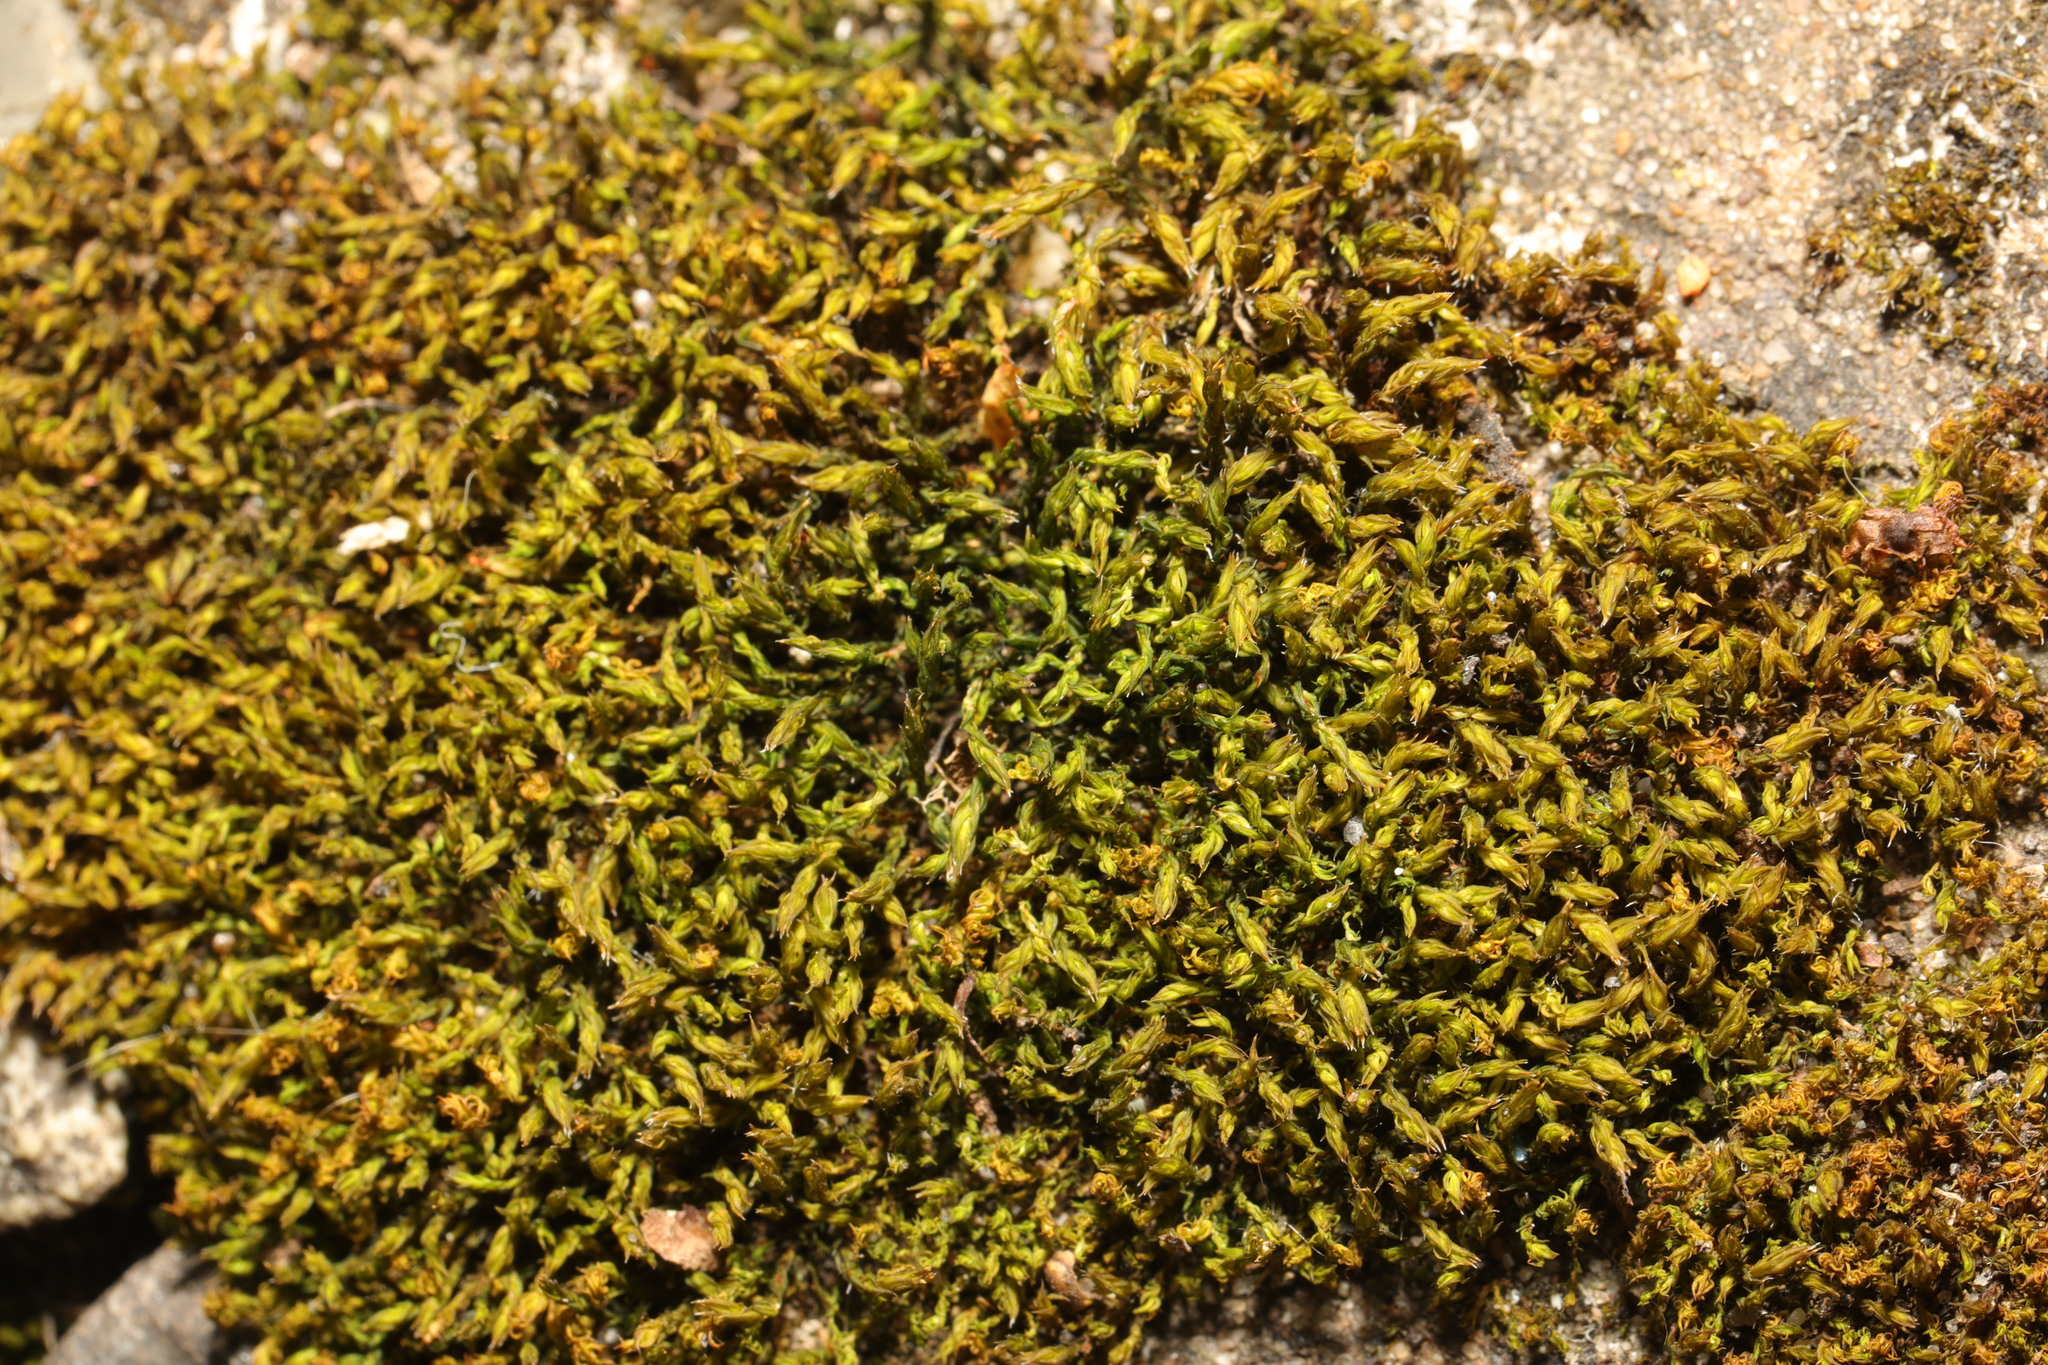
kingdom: Plantae
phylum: Bryophyta
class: Bryopsida
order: Hypnales
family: Brachytheciaceae
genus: Homalothecium
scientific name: Homalothecium sericeum
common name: Silky wall feather-moss
